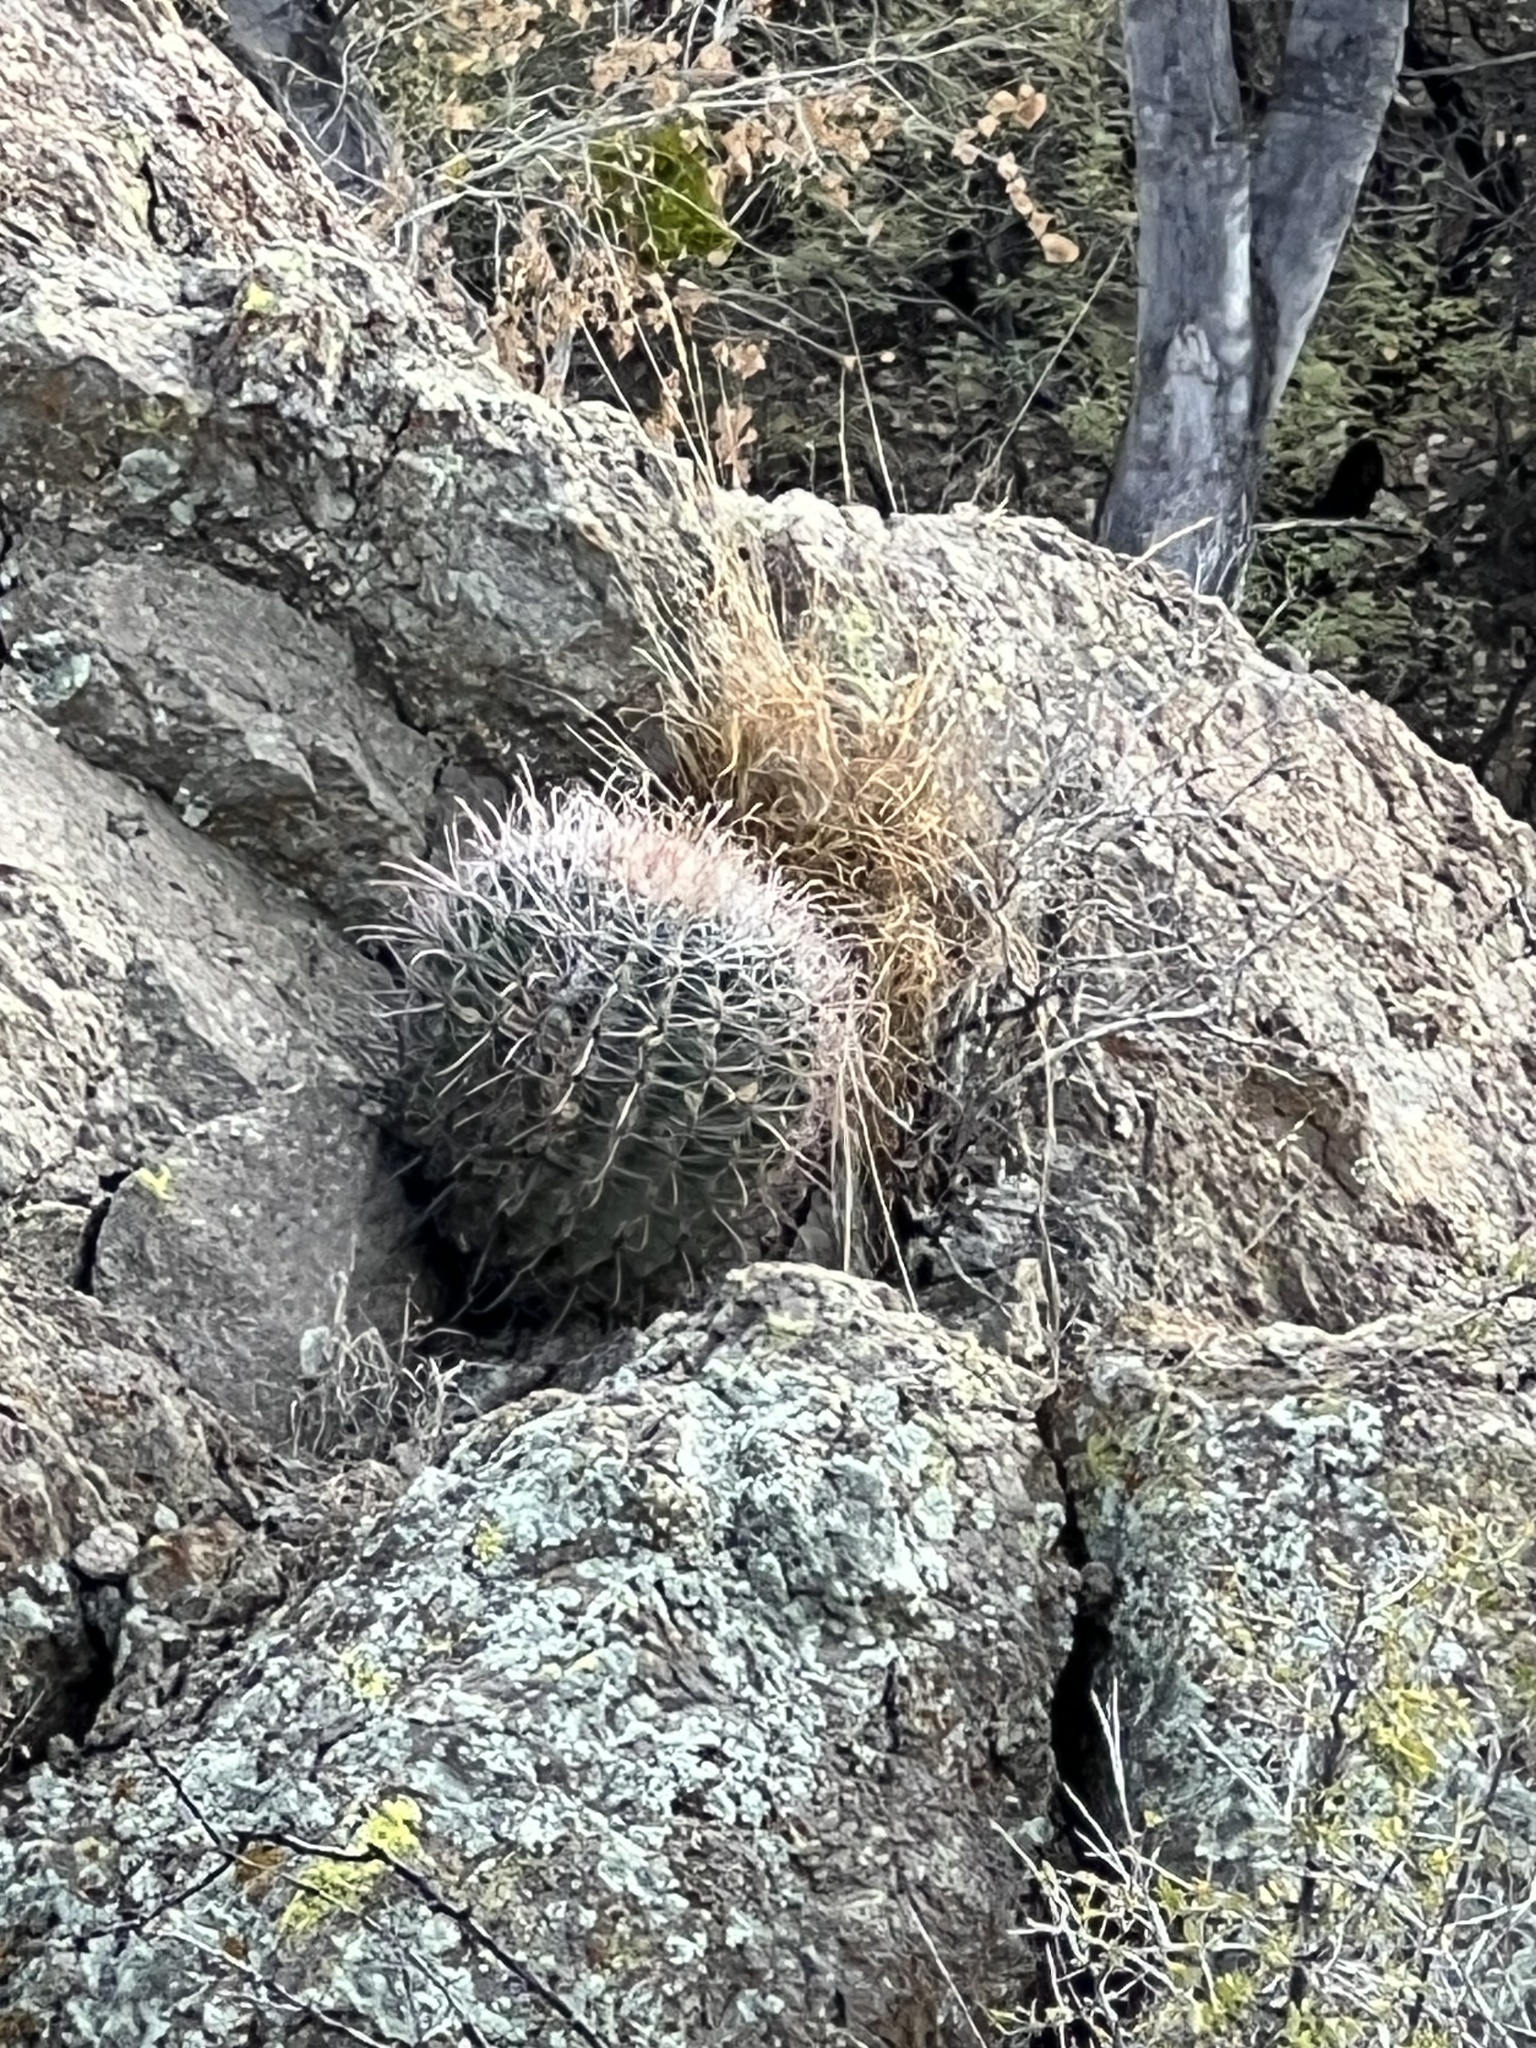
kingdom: Plantae
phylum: Tracheophyta
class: Magnoliopsida
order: Caryophyllales
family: Cactaceae
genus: Ferocactus
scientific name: Ferocactus wislizeni
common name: Candy barrel cactus
